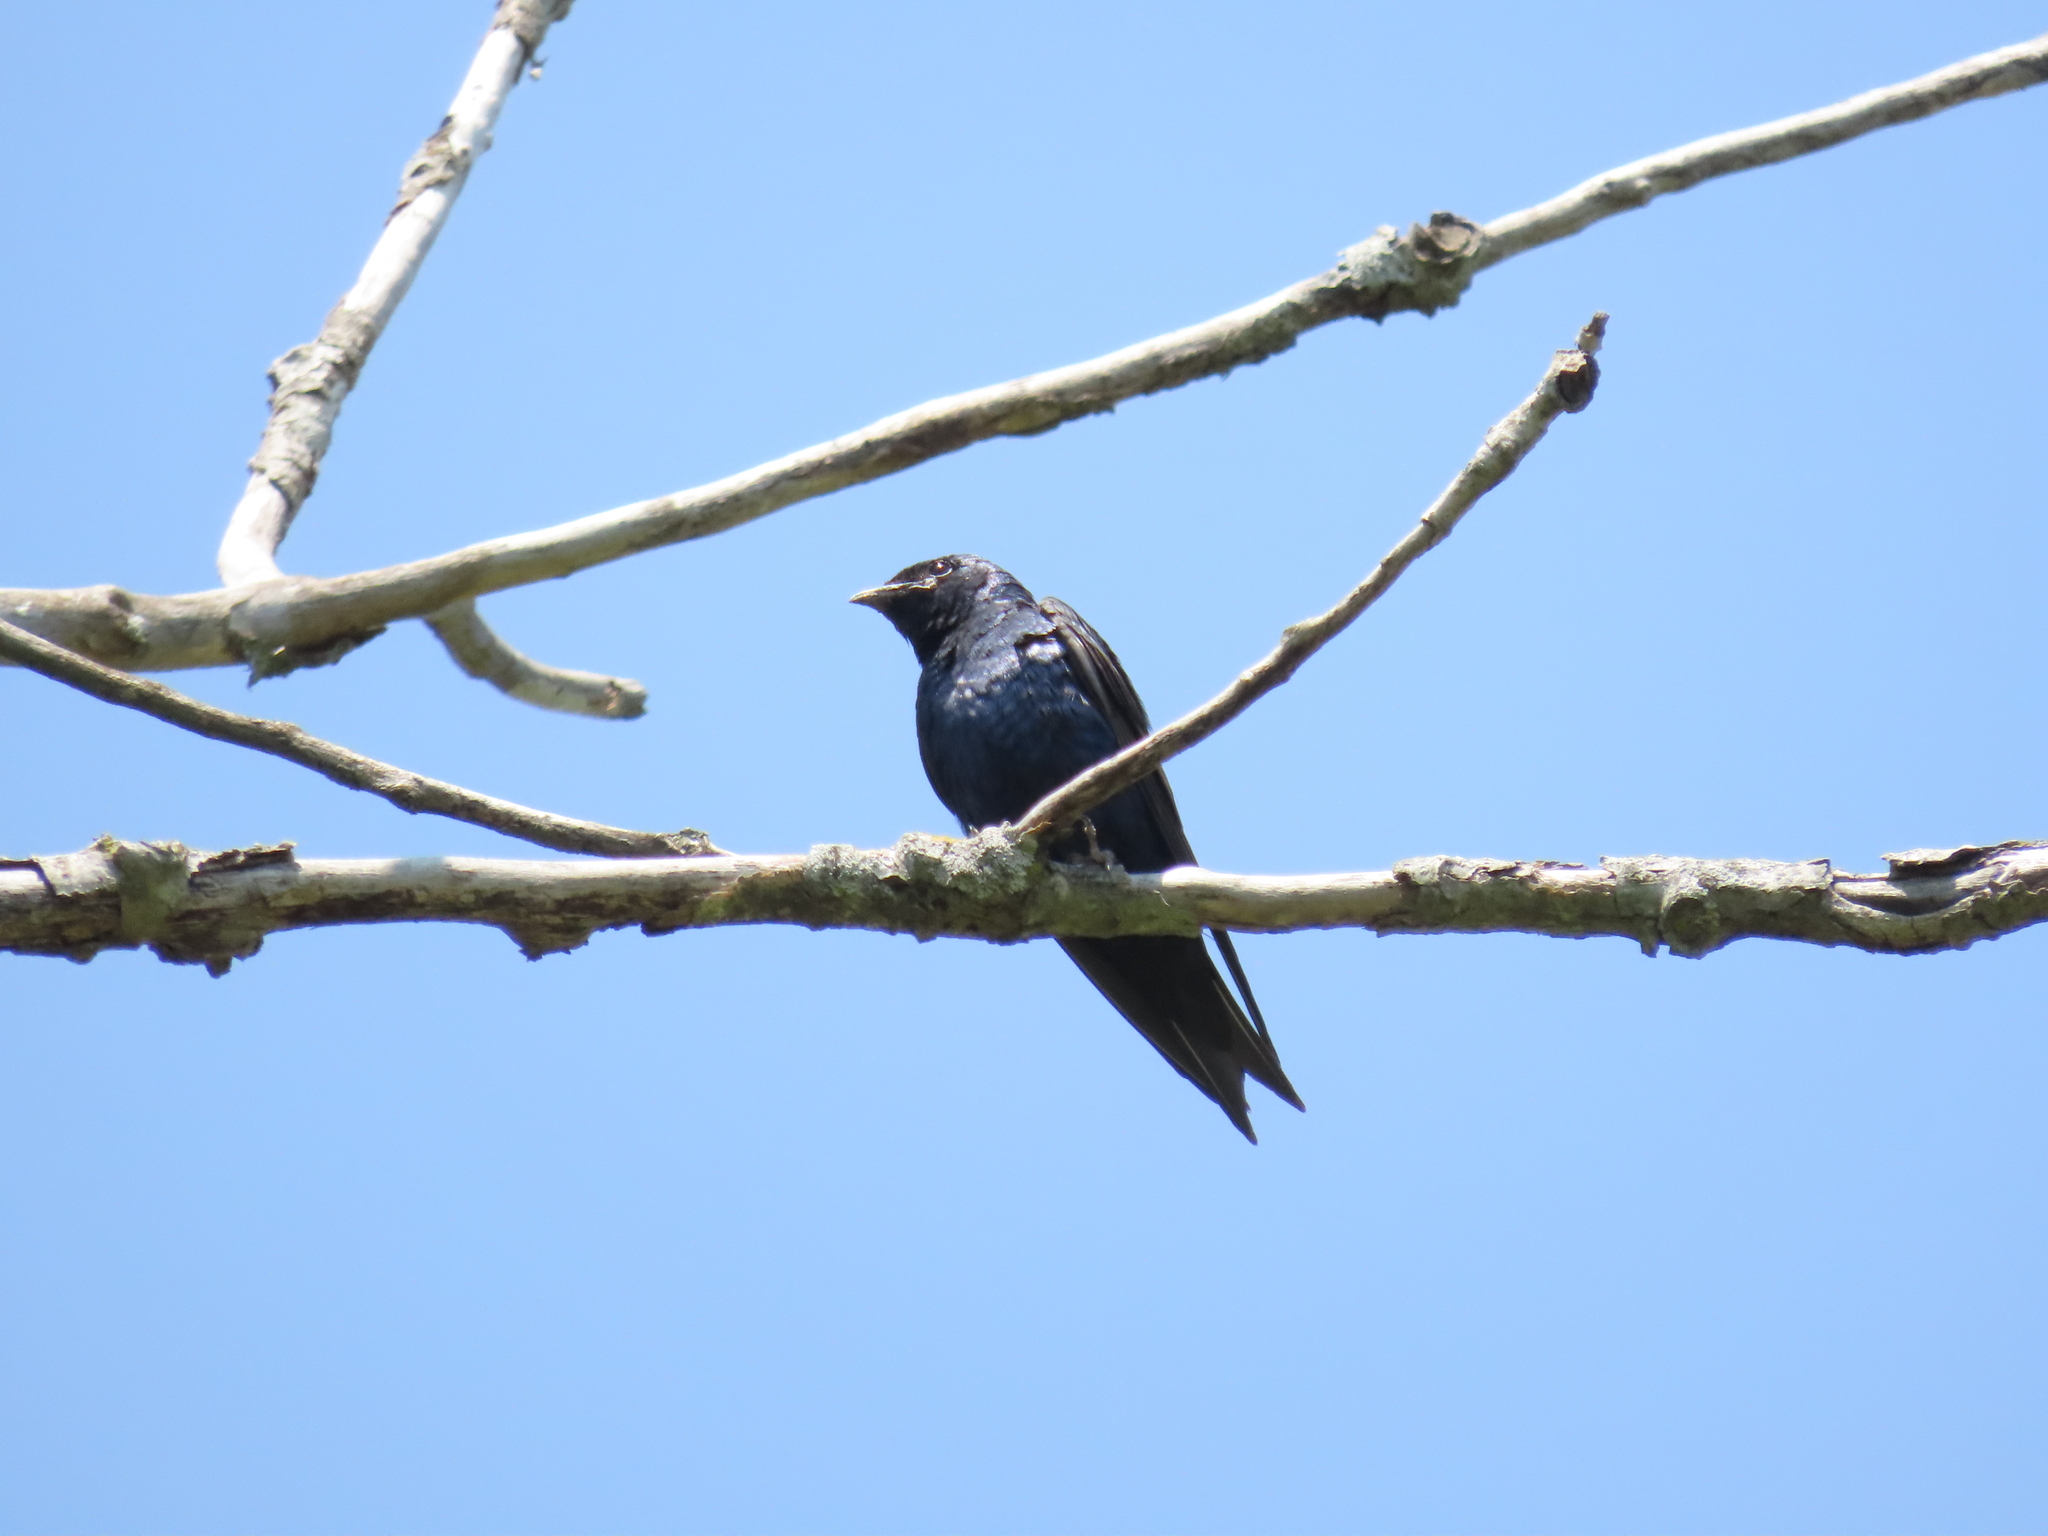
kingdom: Animalia
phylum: Chordata
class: Aves
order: Passeriformes
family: Hirundinidae
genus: Progne
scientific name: Progne subis
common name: Purple martin
